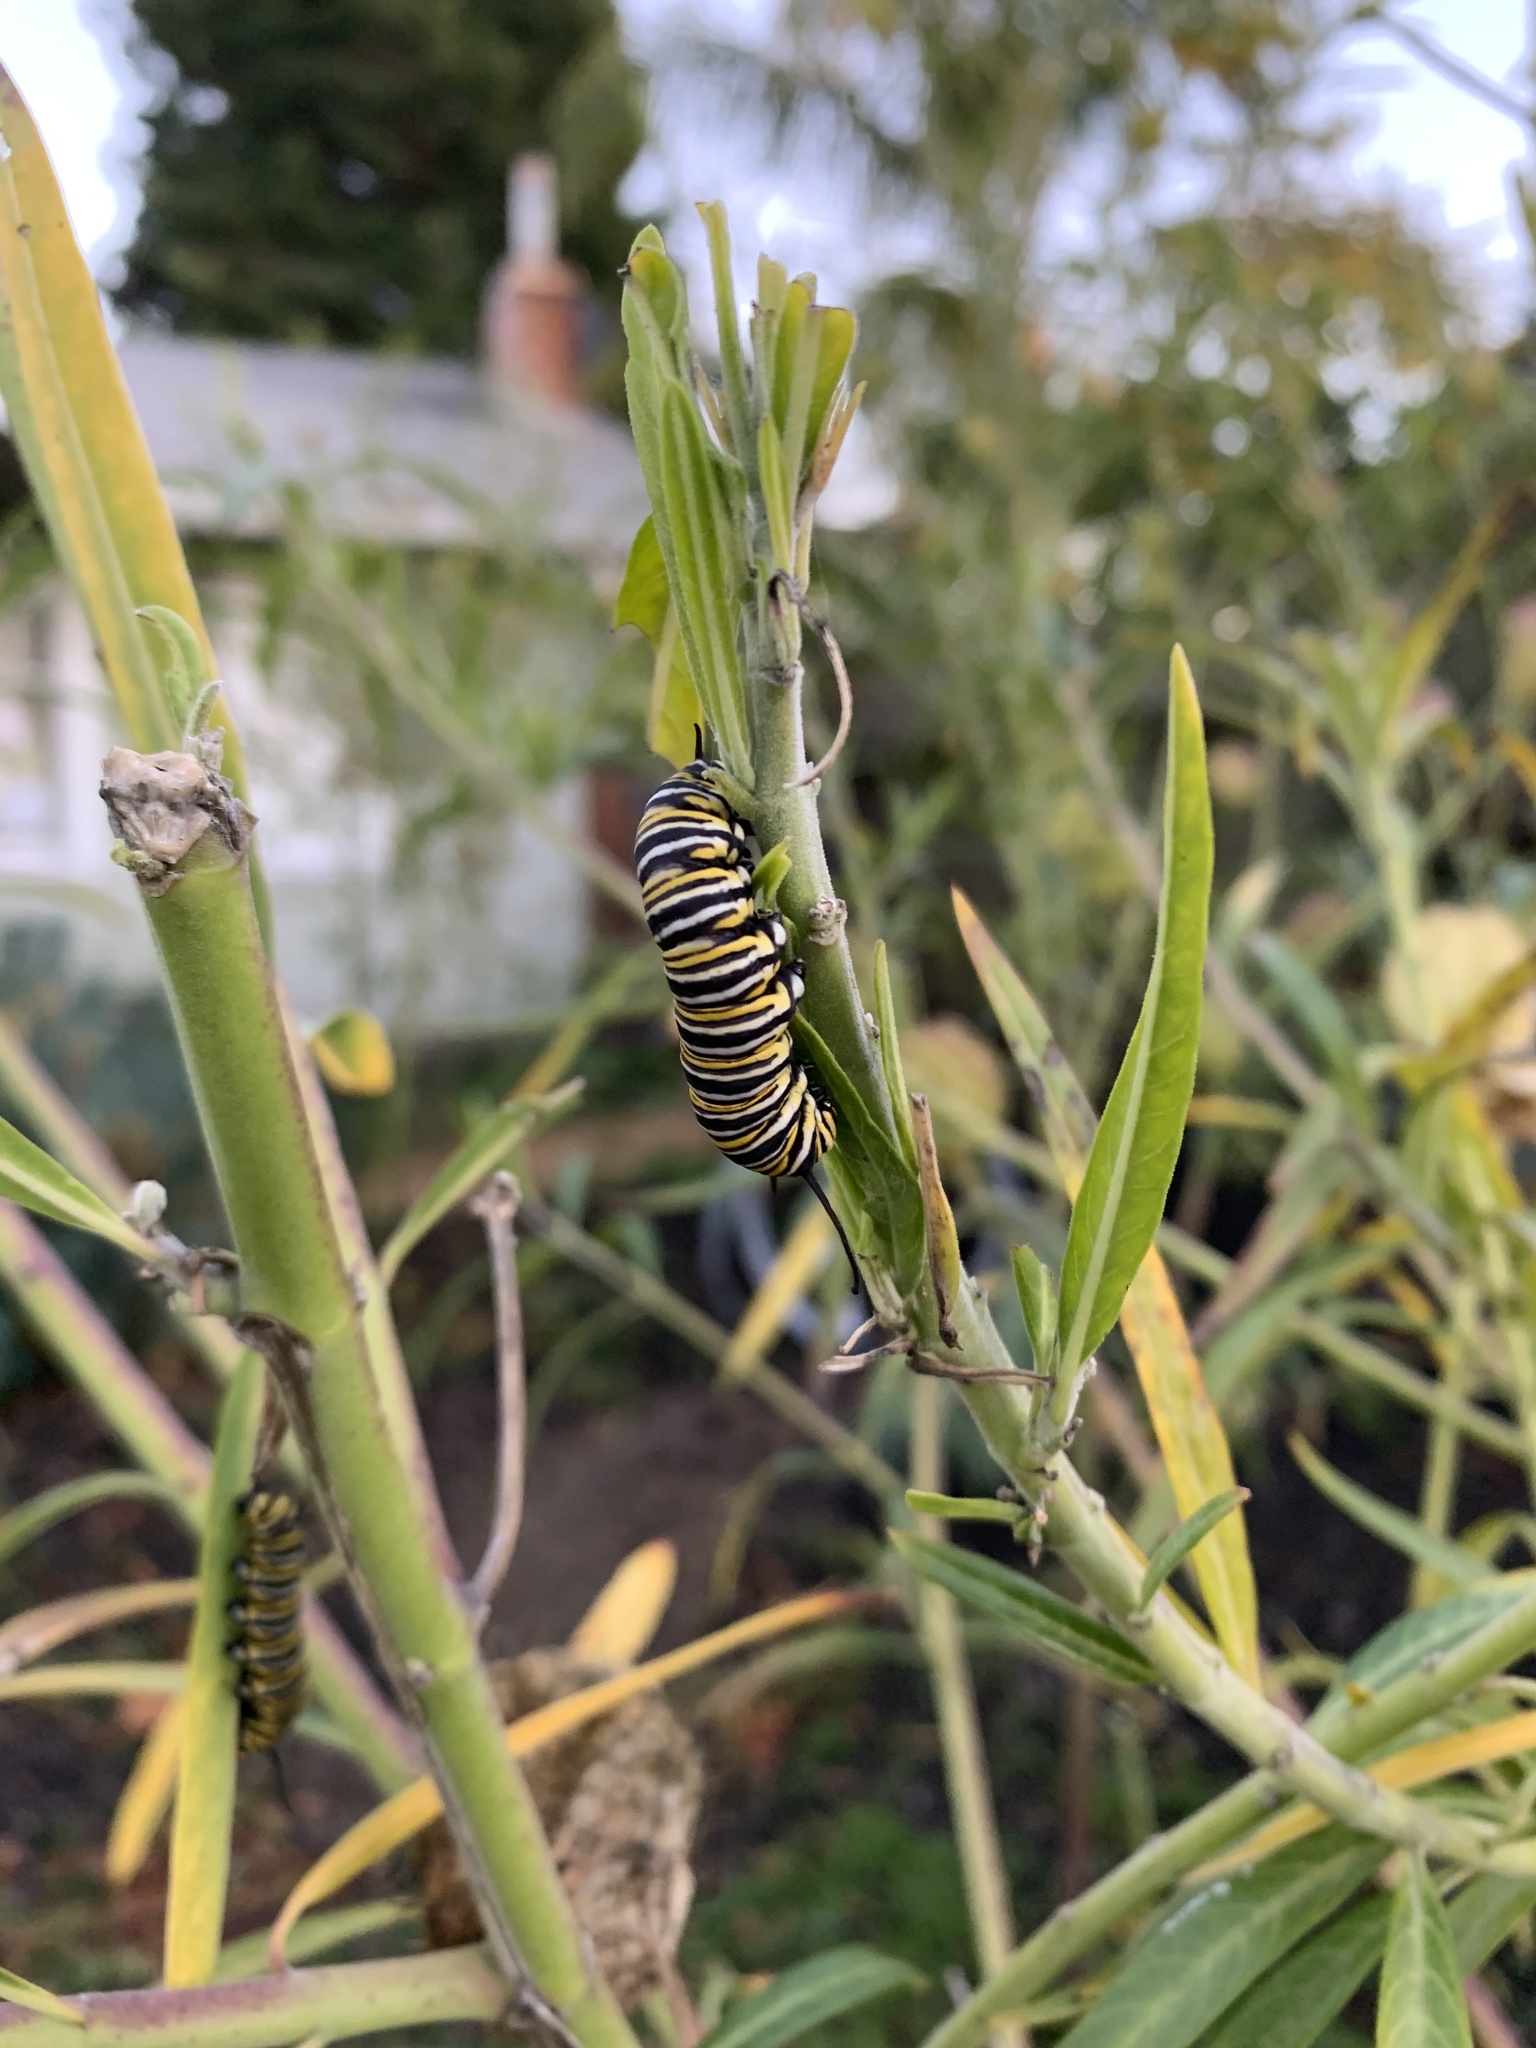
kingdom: Animalia
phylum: Arthropoda
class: Insecta
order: Lepidoptera
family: Nymphalidae
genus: Danaus
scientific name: Danaus plexippus
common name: Monarch
